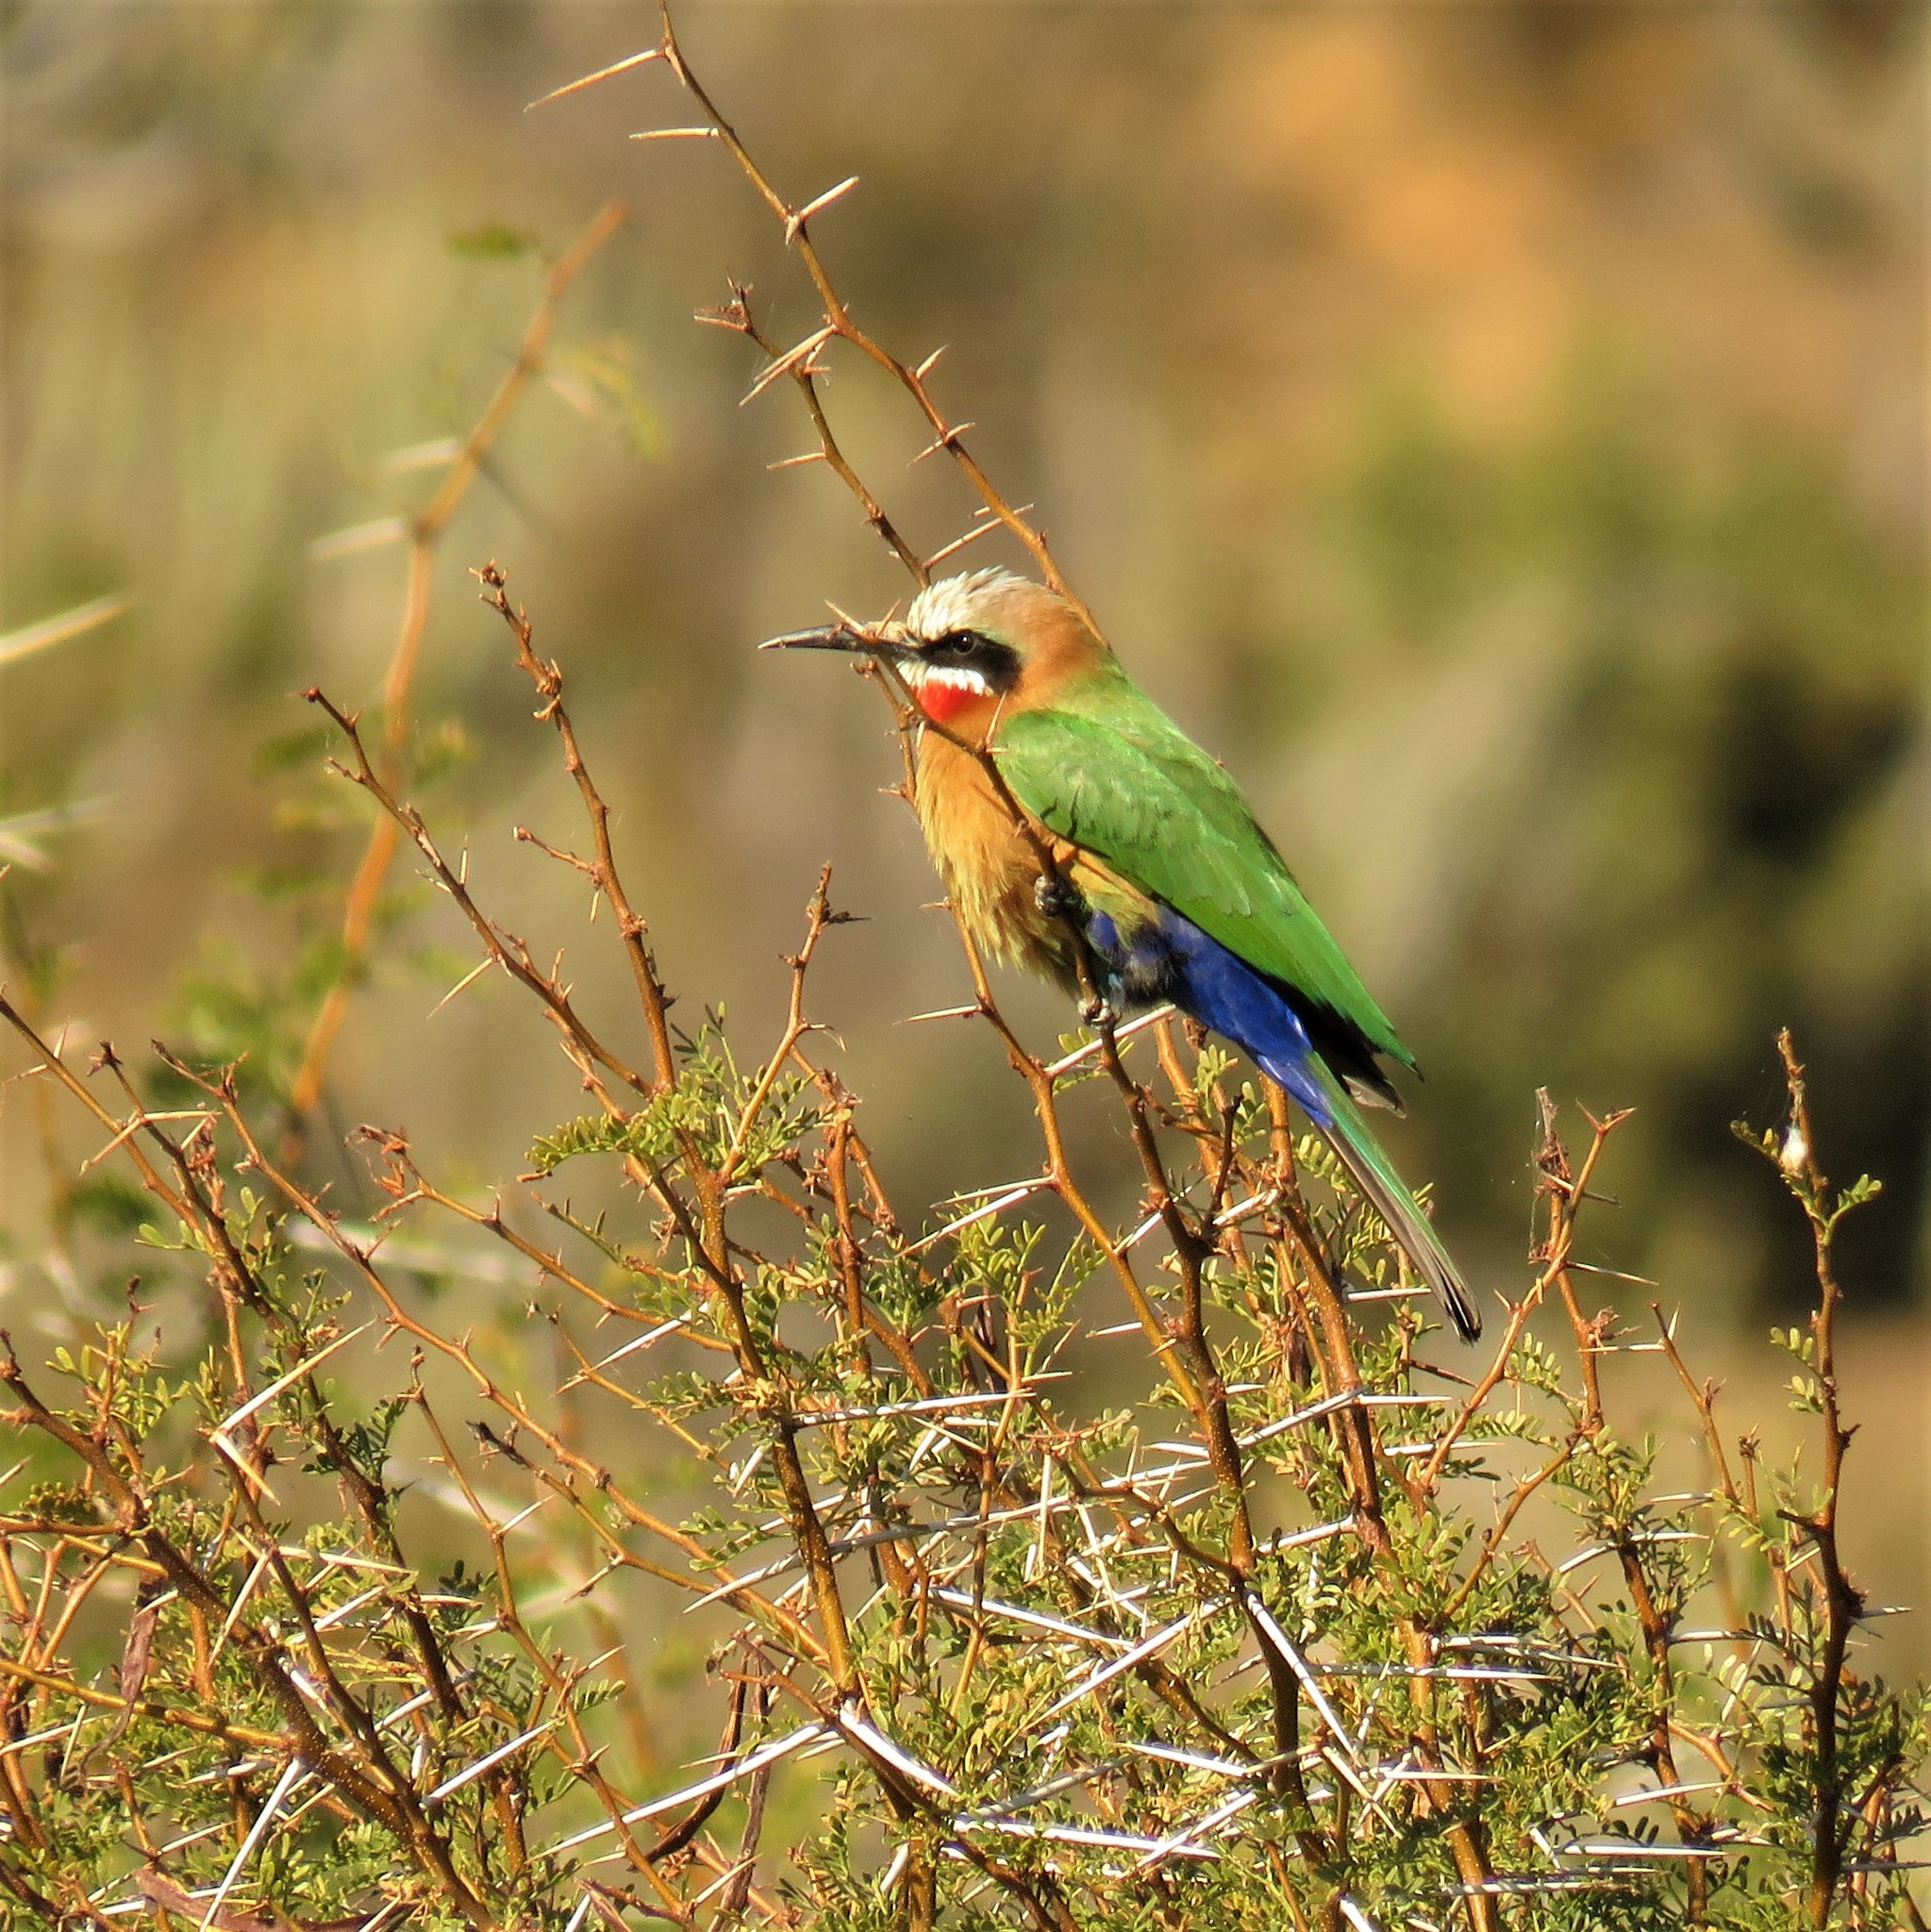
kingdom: Animalia
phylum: Chordata
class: Aves
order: Coraciiformes
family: Meropidae
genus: Merops
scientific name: Merops bullockoides
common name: White-fronted bee-eater
